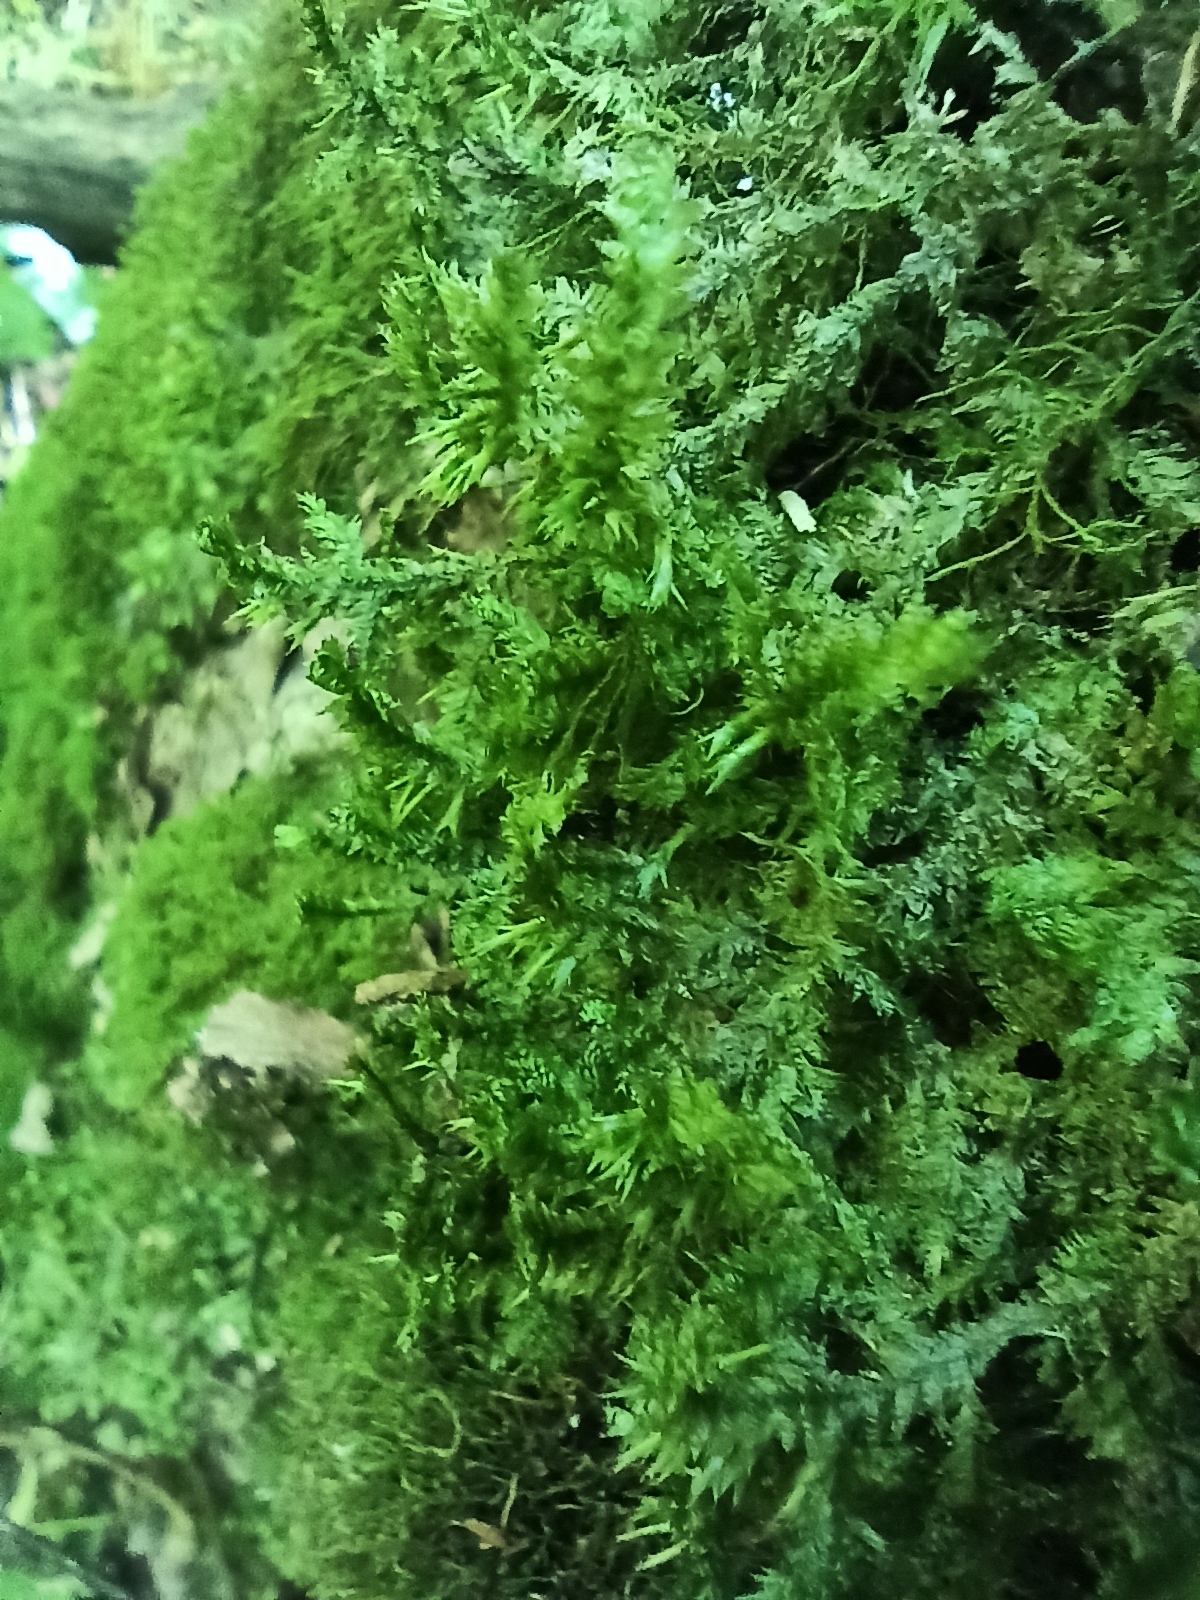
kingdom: Plantae
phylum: Bryophyta
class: Bryopsida
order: Hypnales
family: Neckeraceae
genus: Neckera
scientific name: Neckera pennata
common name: Feathery neckera
